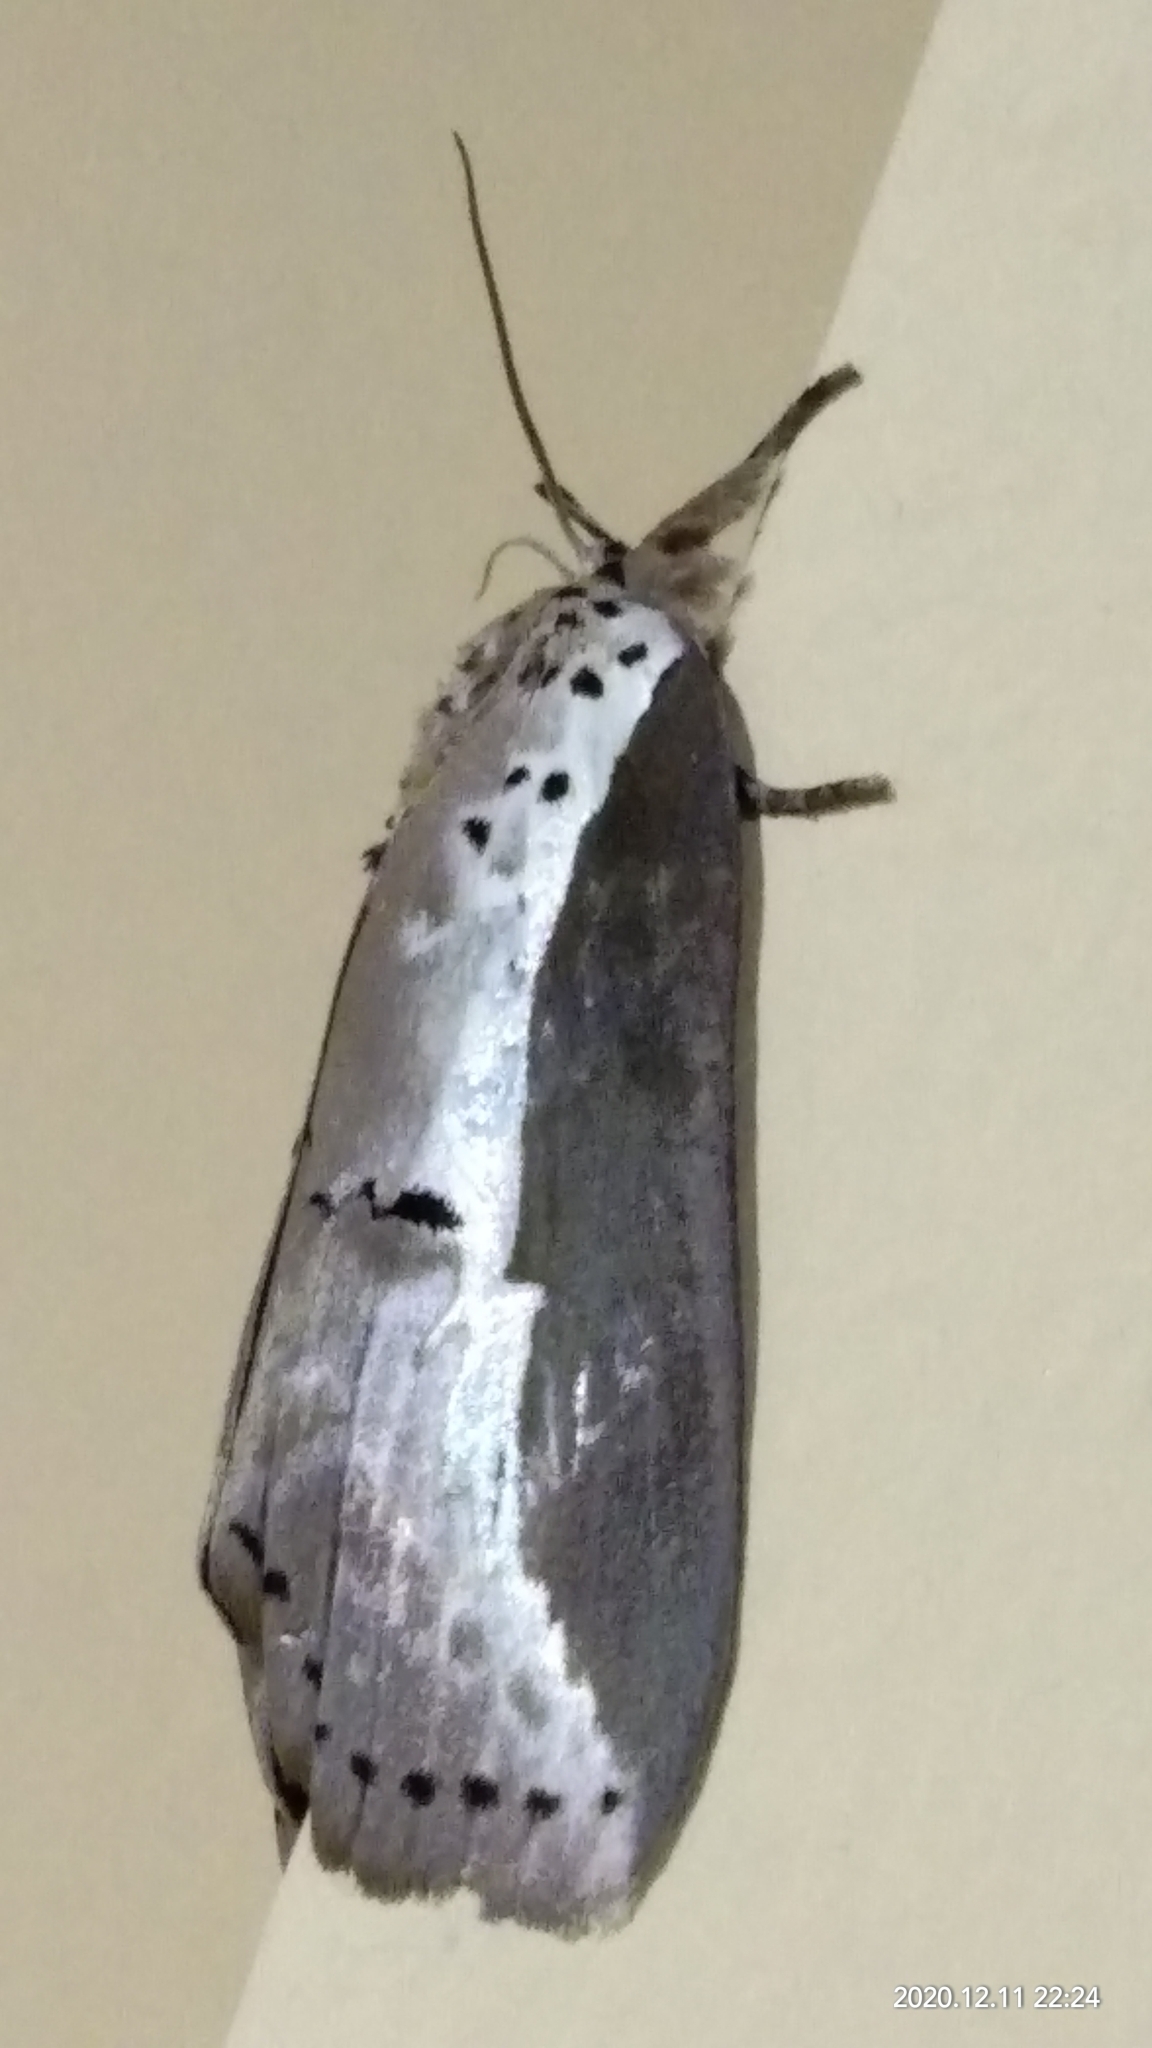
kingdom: Animalia
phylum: Arthropoda
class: Insecta
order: Lepidoptera
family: Nolidae
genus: Eligma
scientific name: Eligma narcissus
